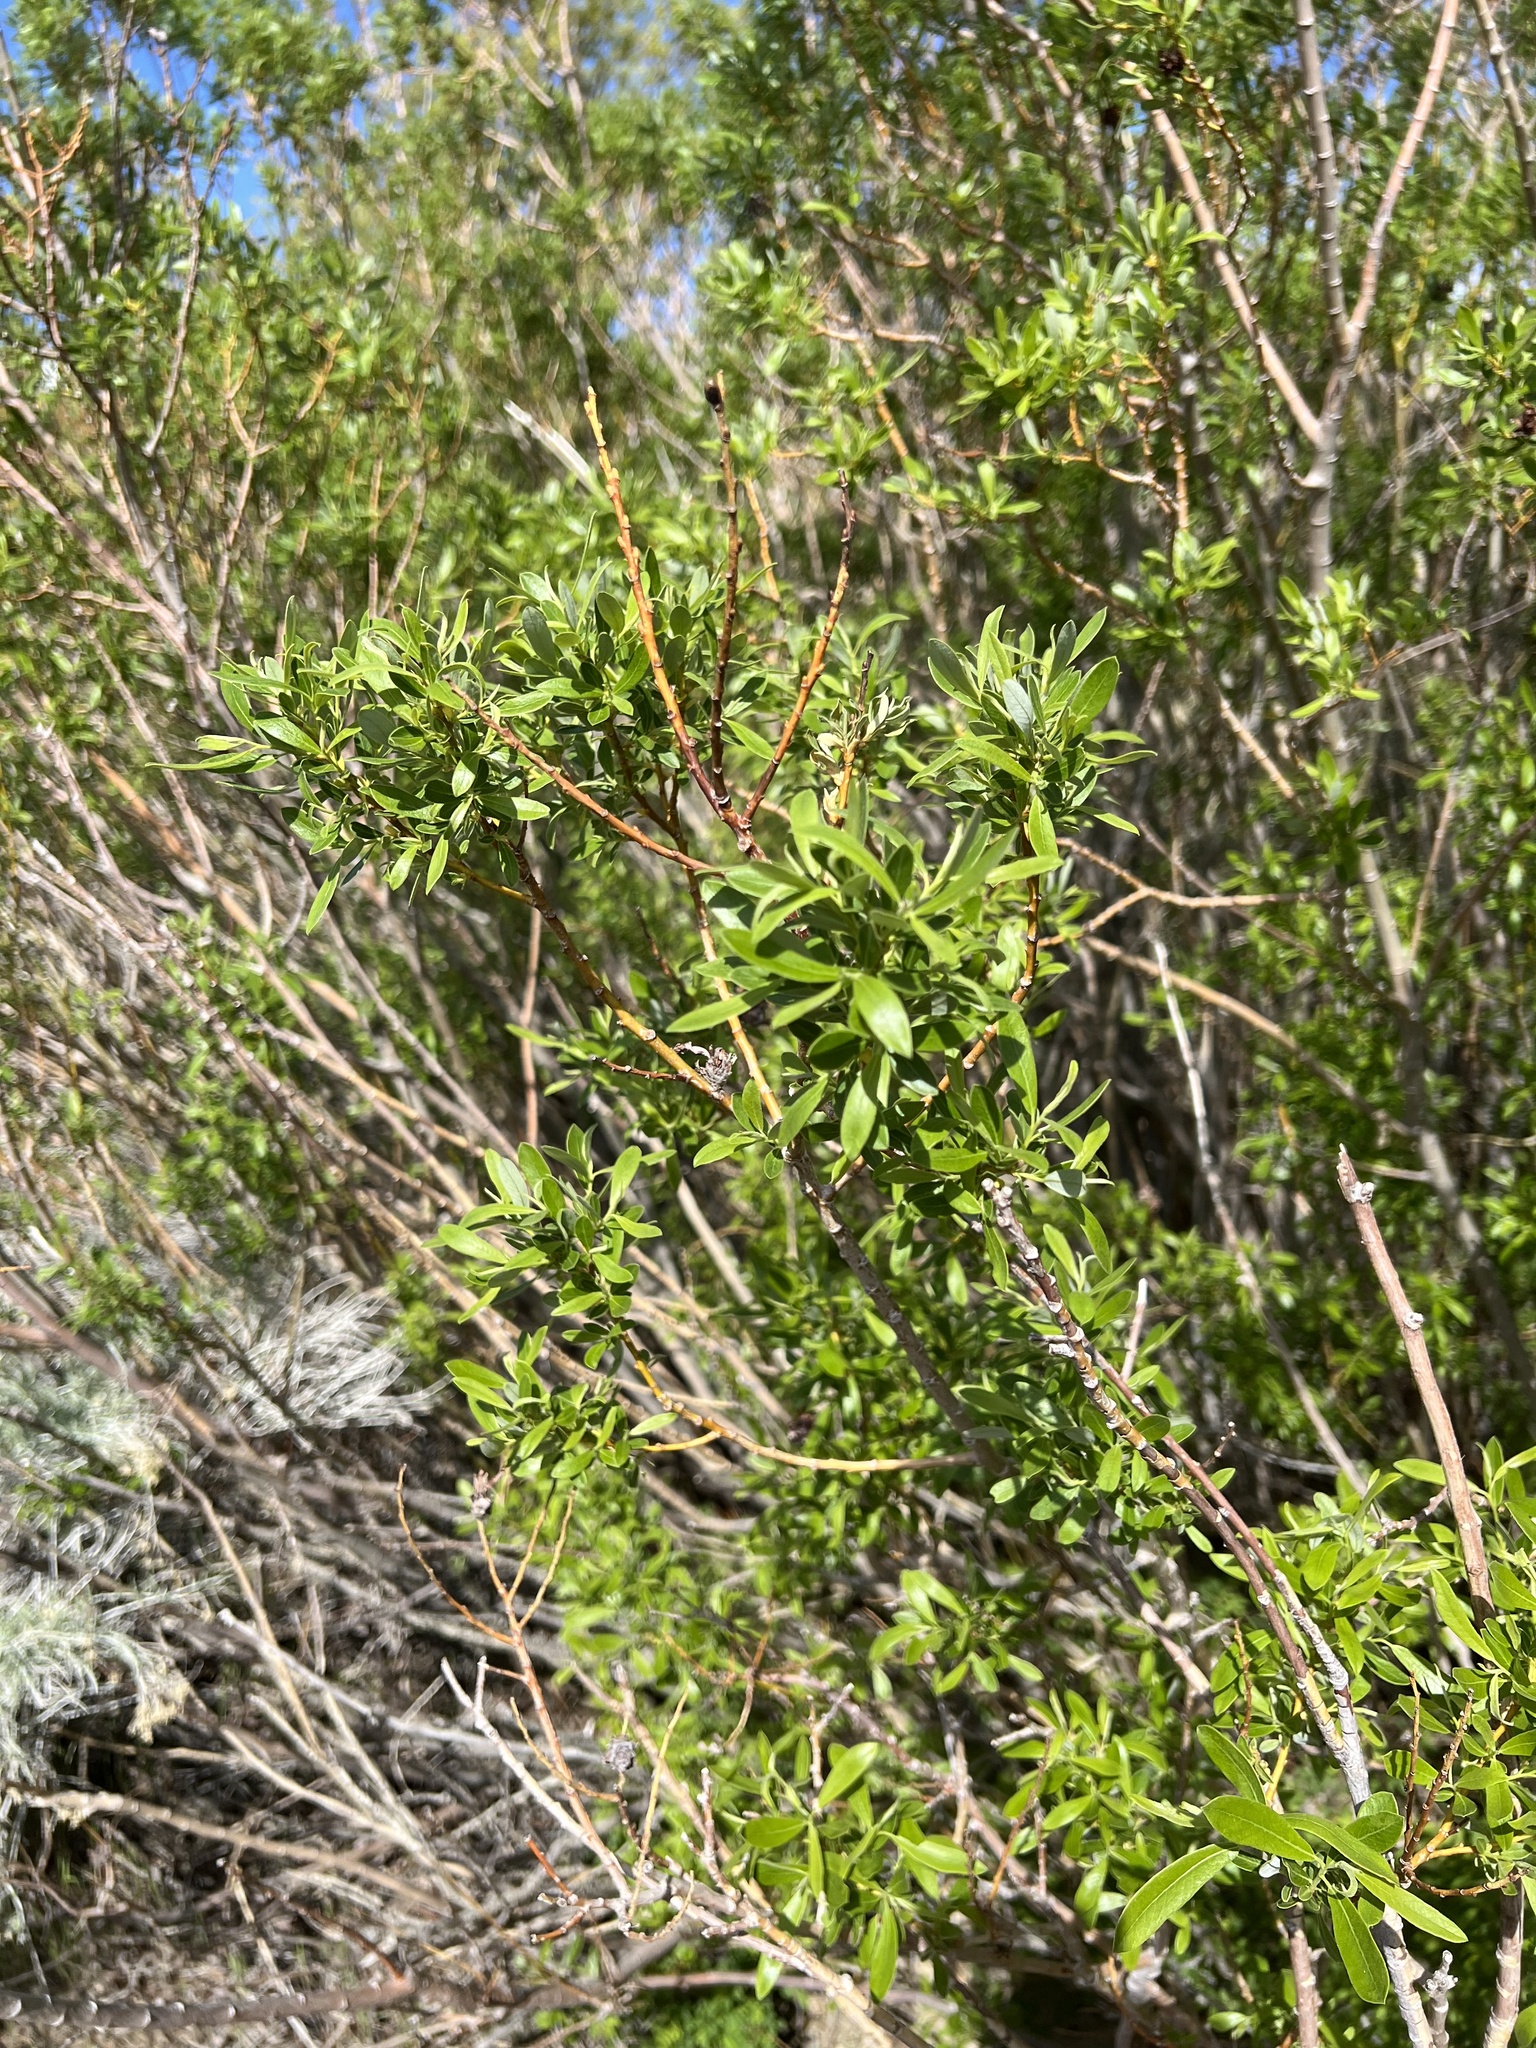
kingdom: Plantae
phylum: Tracheophyta
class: Magnoliopsida
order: Malpighiales
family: Salicaceae
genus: Salix
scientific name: Salix lasiolepis
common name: Arroyo willow
